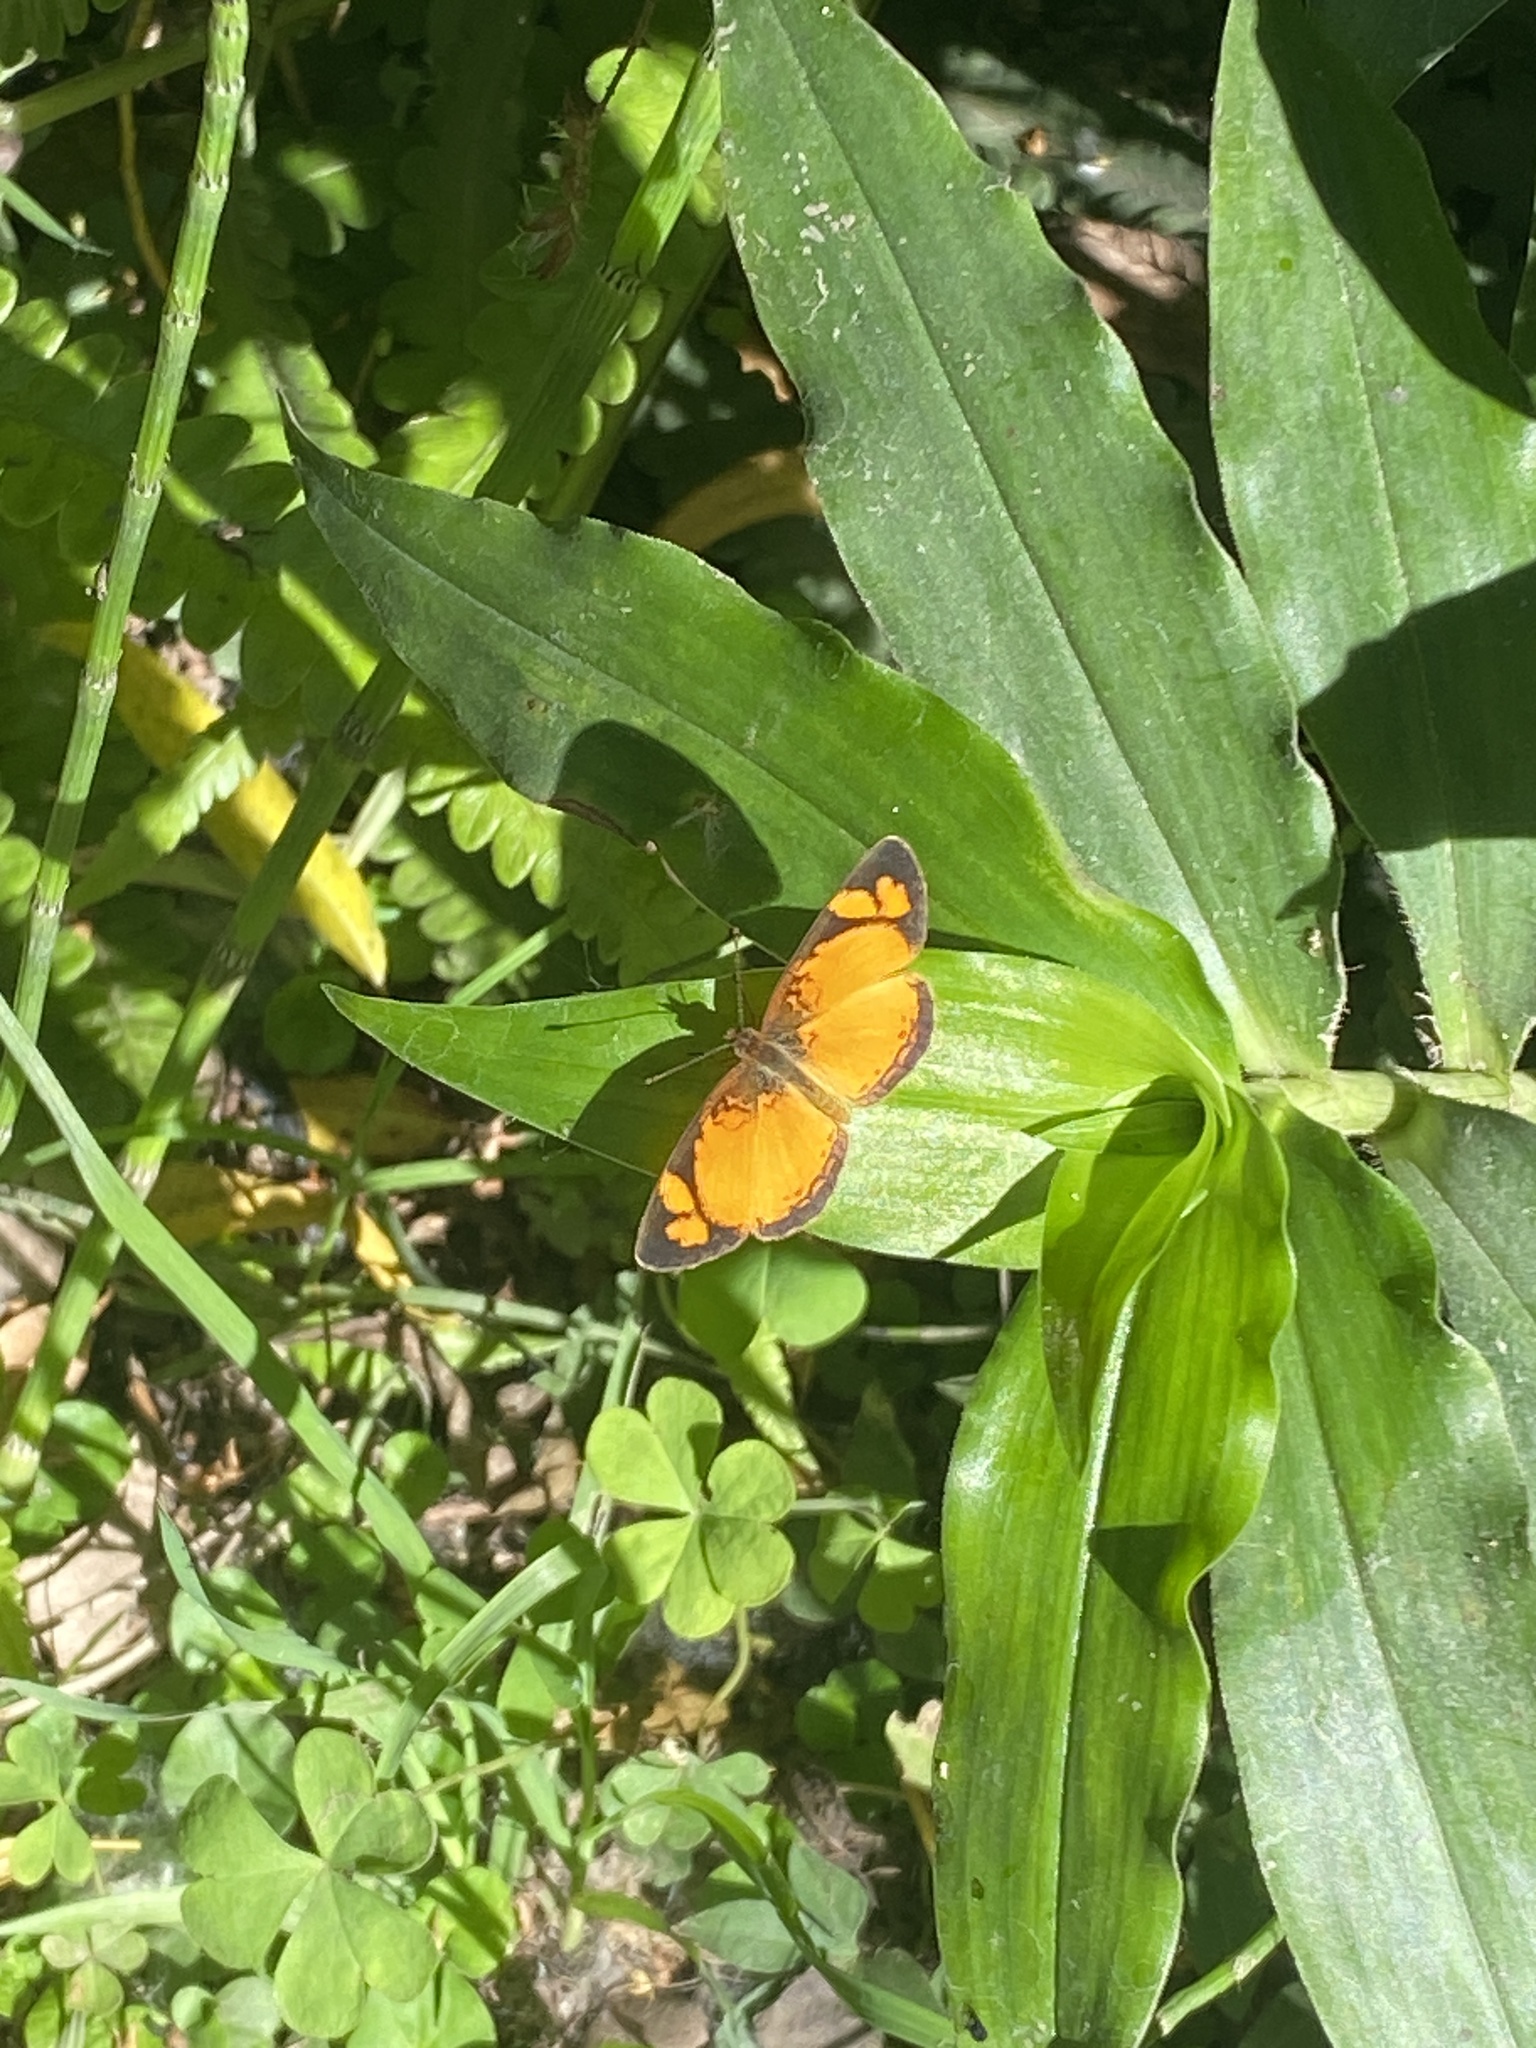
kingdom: Animalia
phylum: Arthropoda
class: Insecta
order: Lepidoptera
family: Nymphalidae
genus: Tegosa
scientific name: Tegosa claudina
